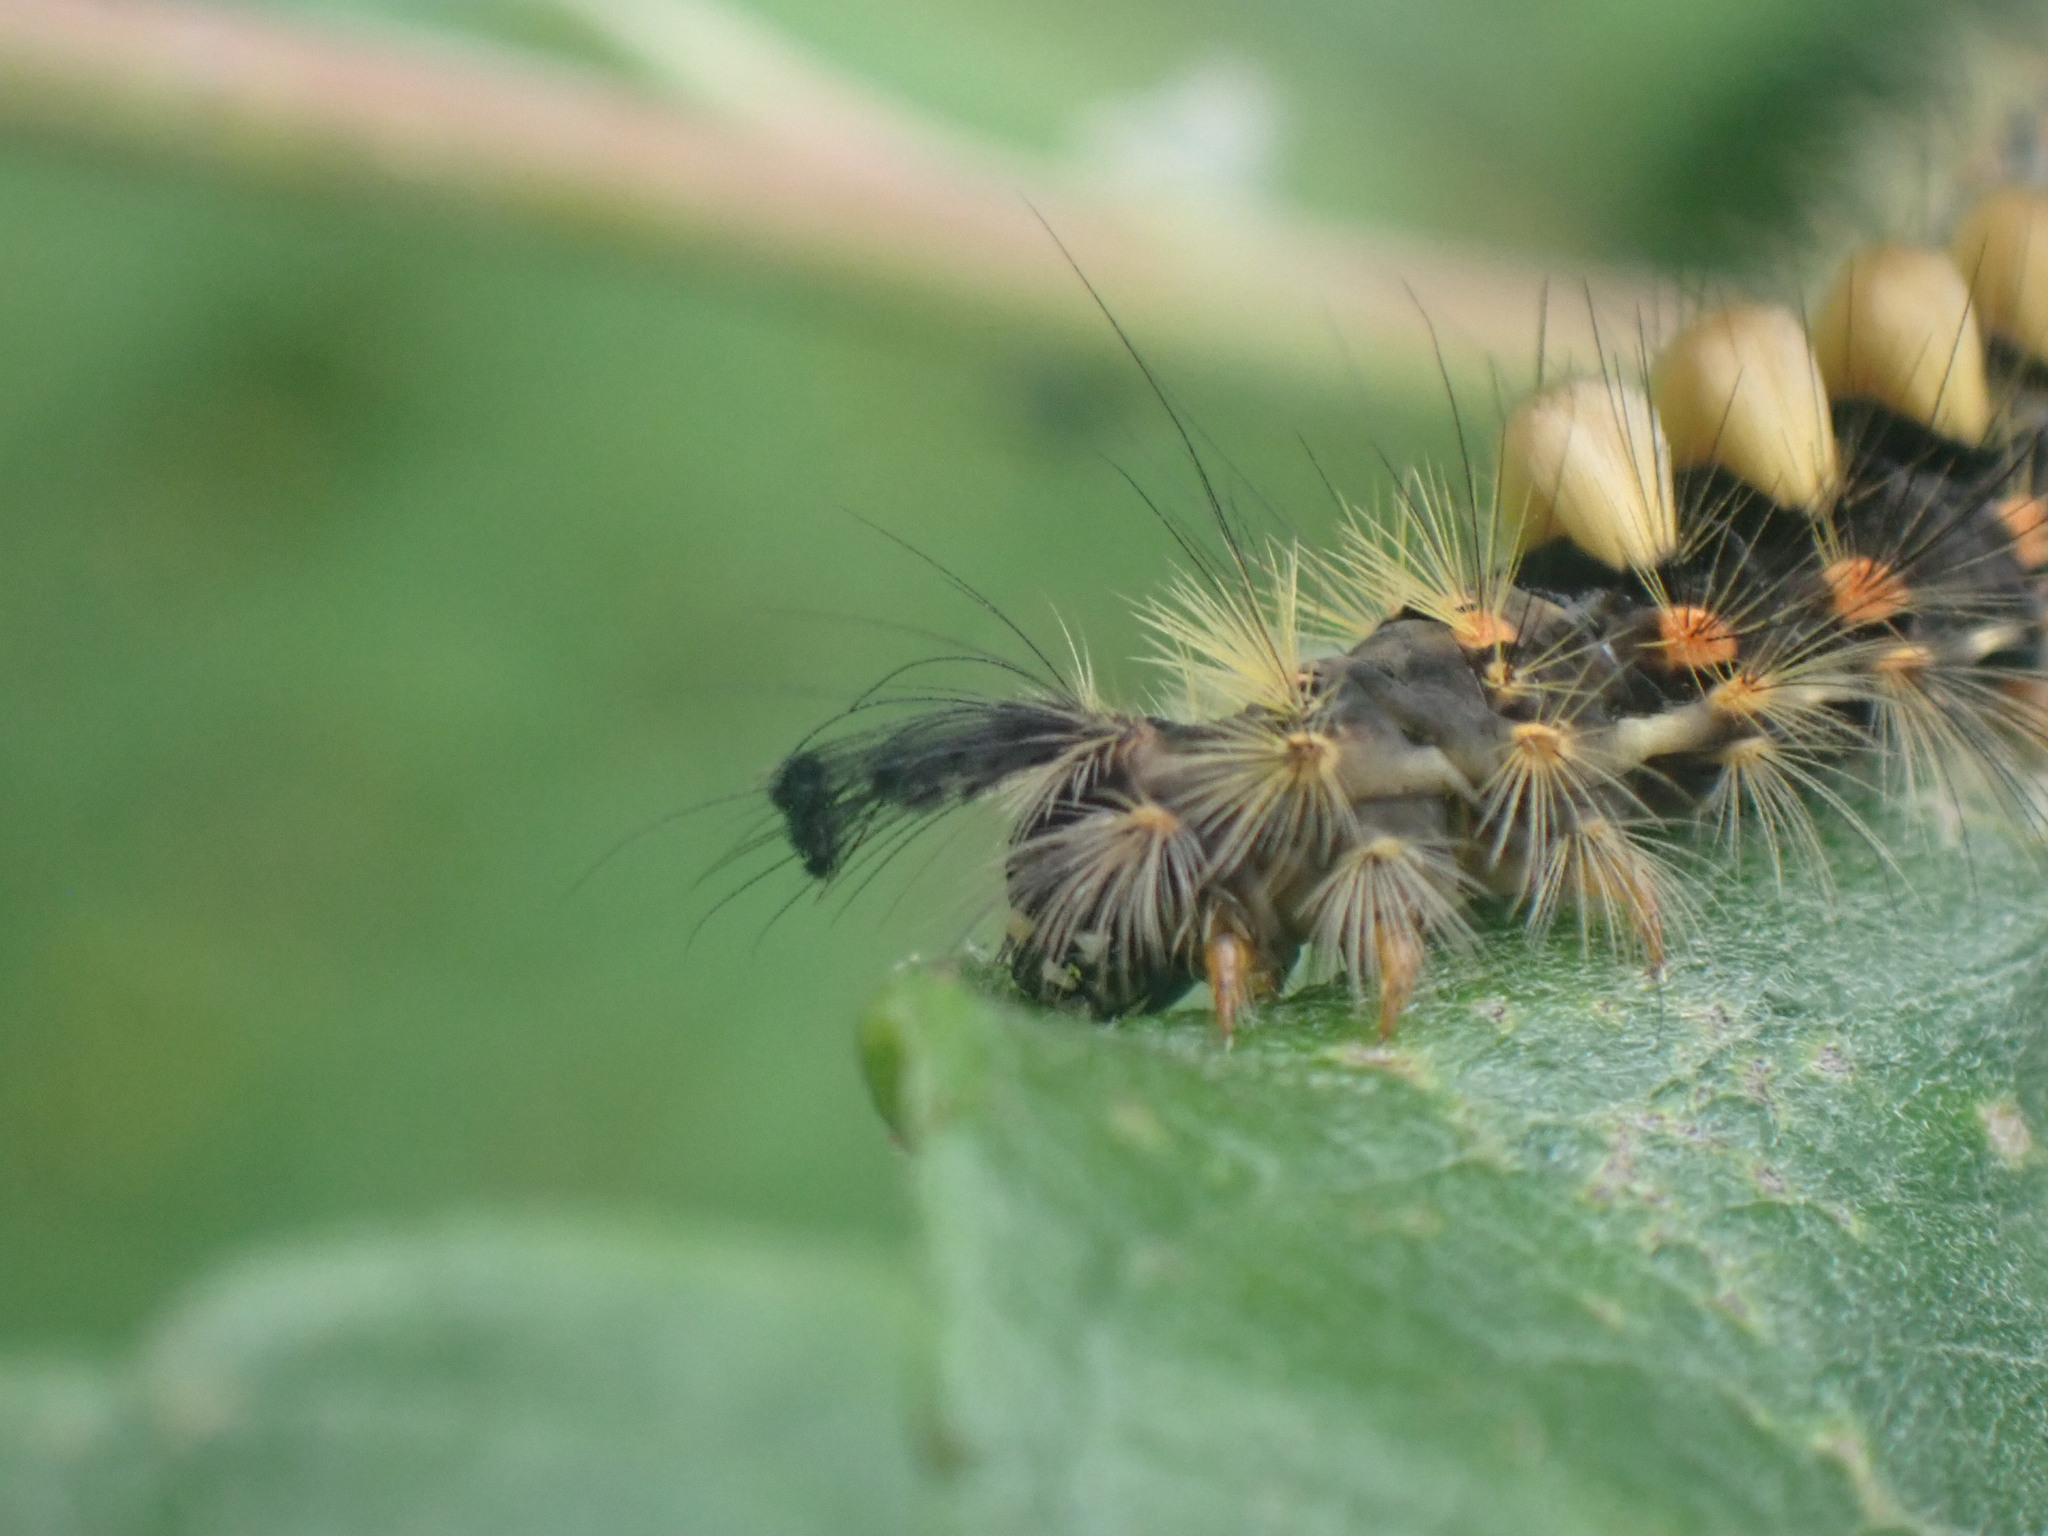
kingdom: Animalia
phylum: Arthropoda
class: Insecta
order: Lepidoptera
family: Erebidae
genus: Orgyia
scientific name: Orgyia antiqua
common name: Vapourer
